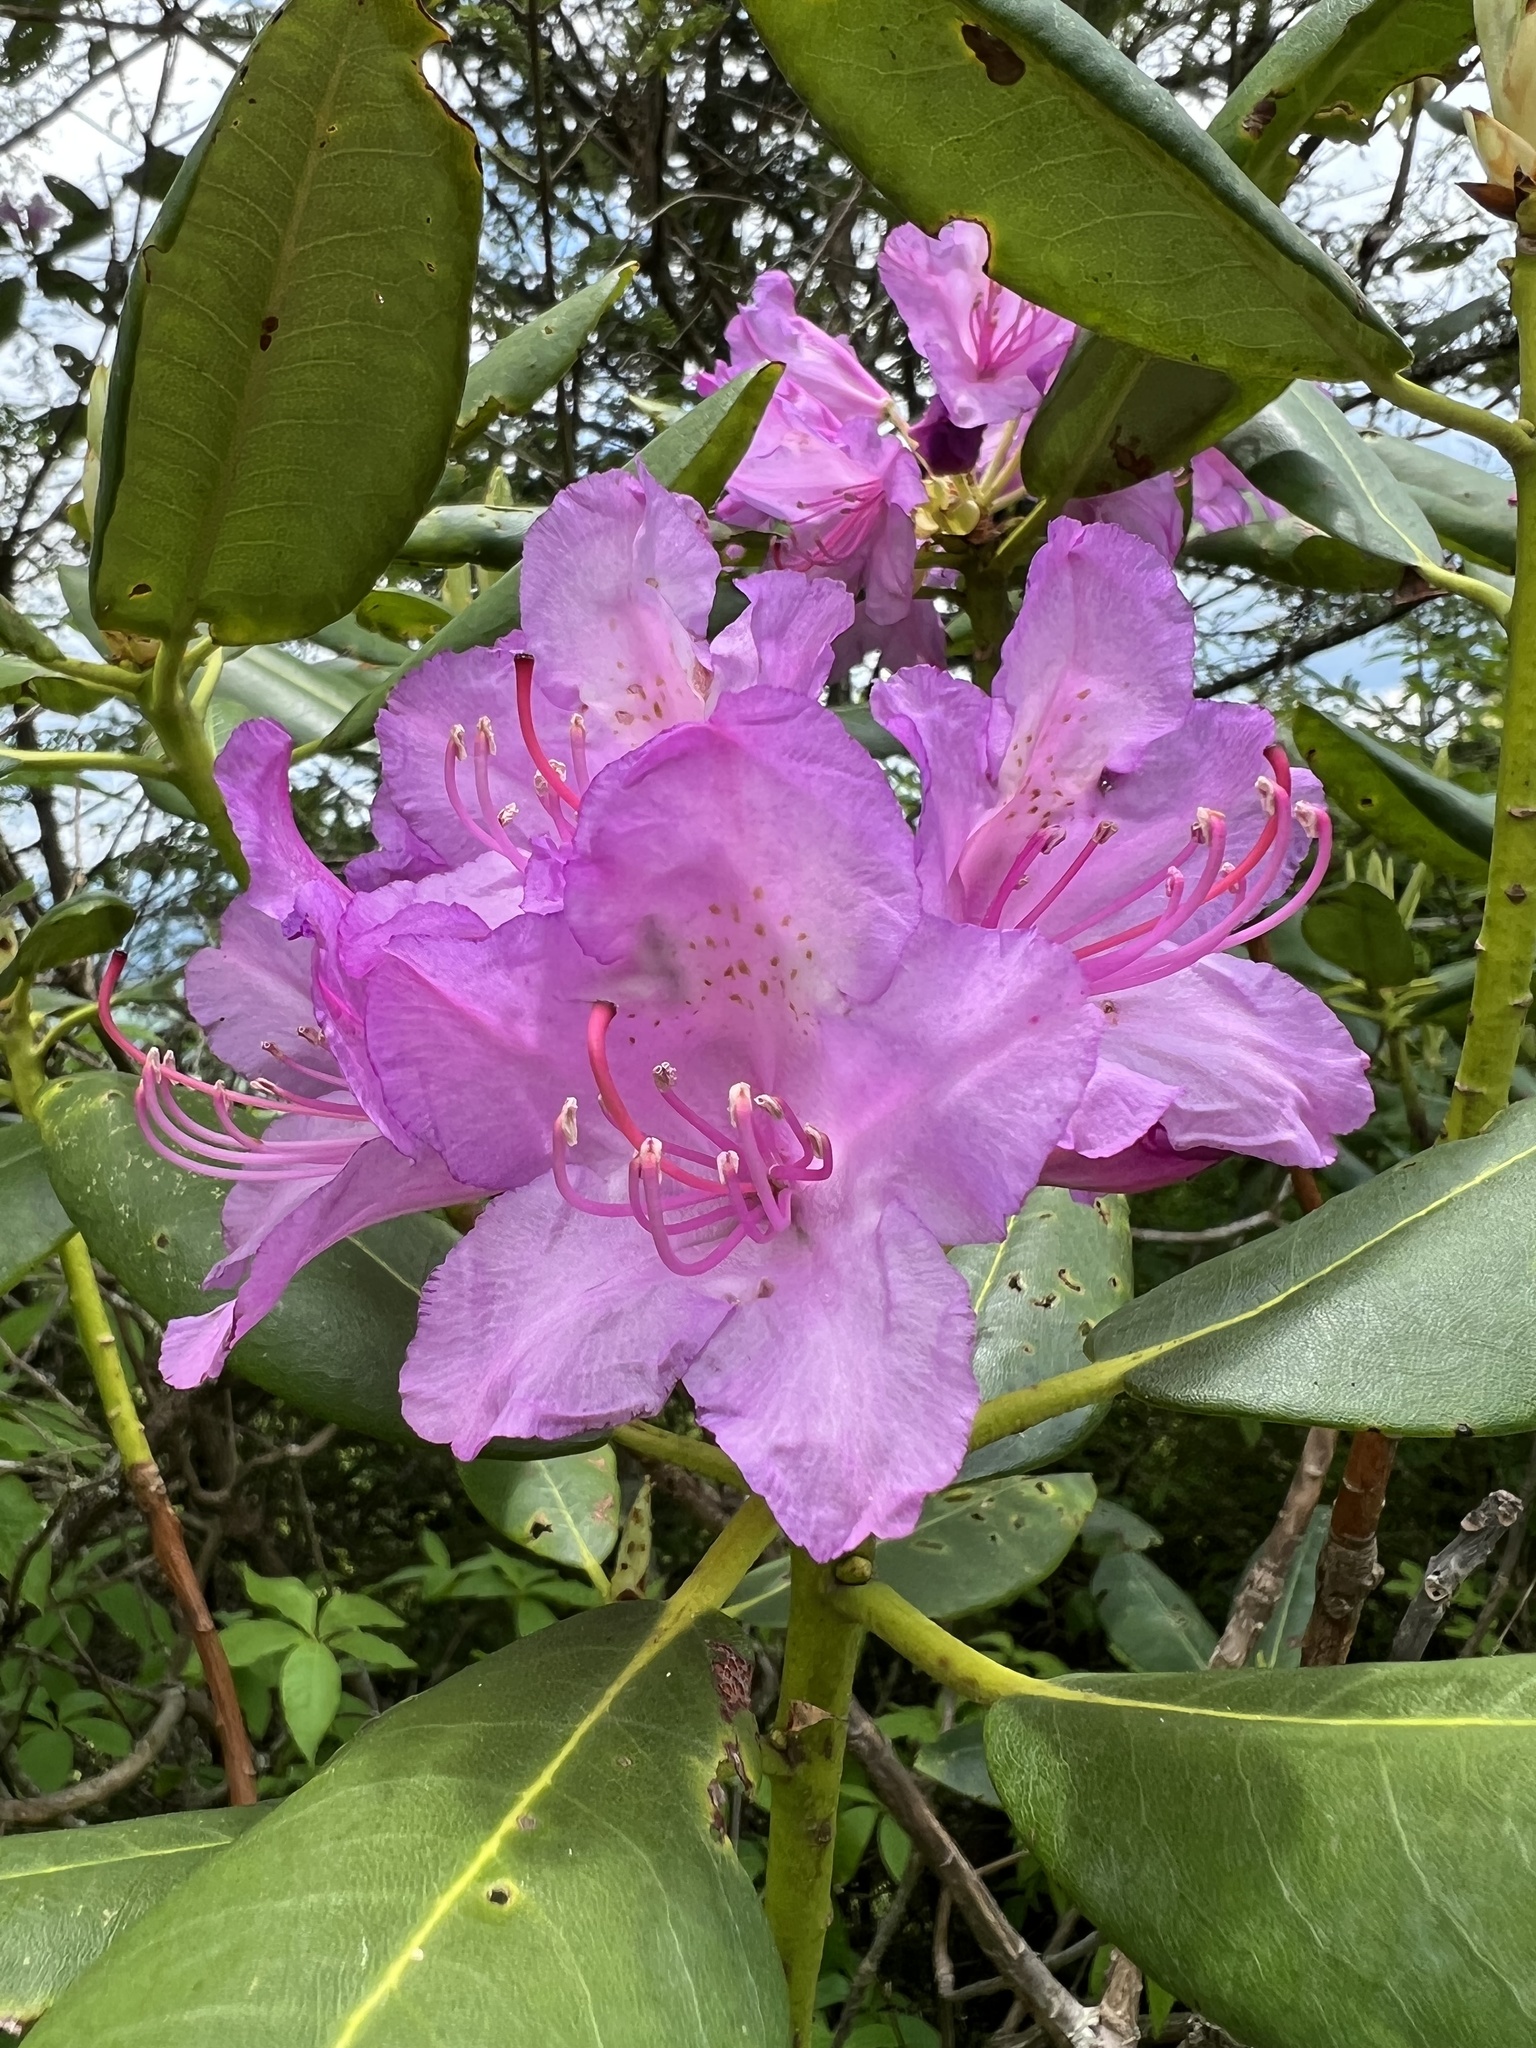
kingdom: Plantae
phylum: Tracheophyta
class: Magnoliopsida
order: Ericales
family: Ericaceae
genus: Rhododendron
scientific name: Rhododendron catawbiense
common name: Catawba rhododendron
